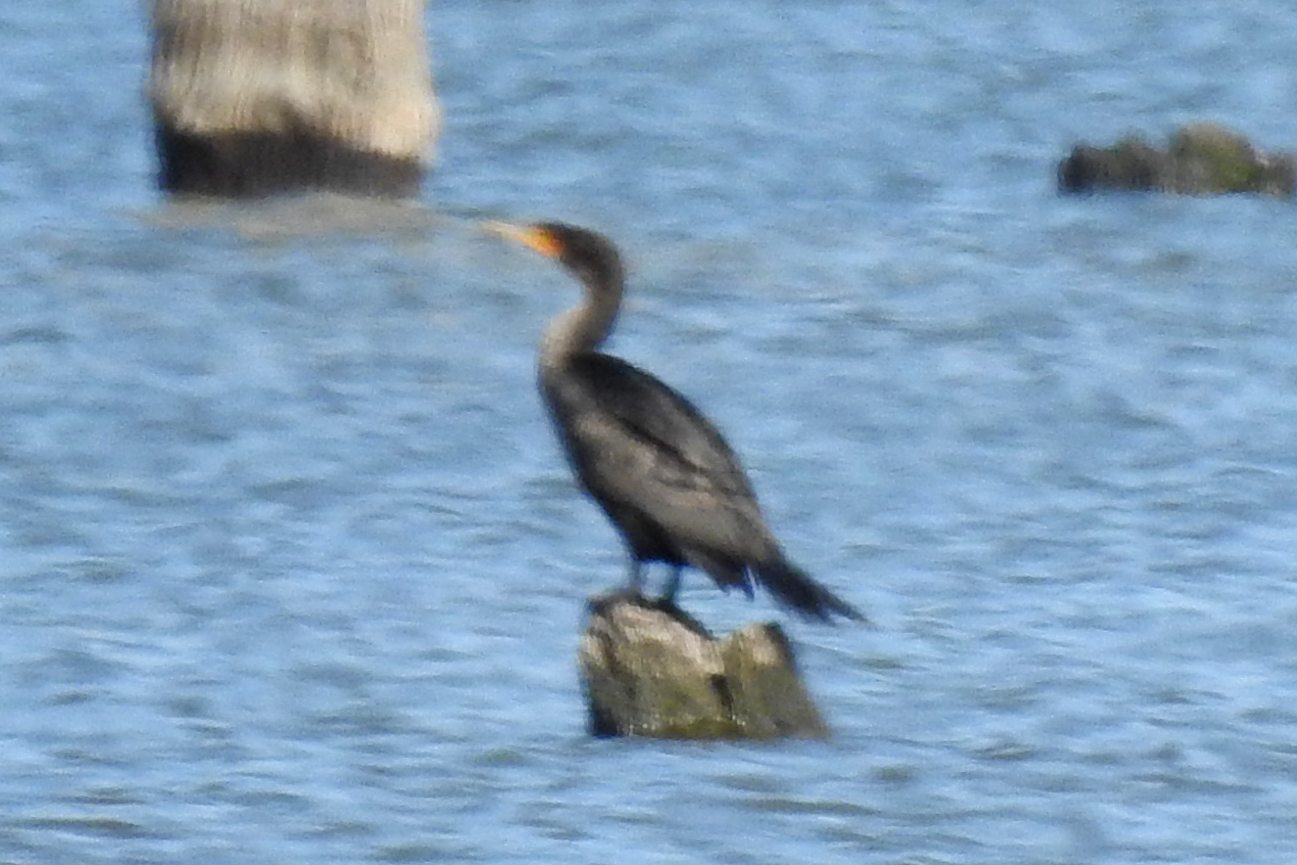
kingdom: Animalia
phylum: Chordata
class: Aves
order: Suliformes
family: Phalacrocoracidae
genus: Phalacrocorax
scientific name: Phalacrocorax auritus
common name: Double-crested cormorant
